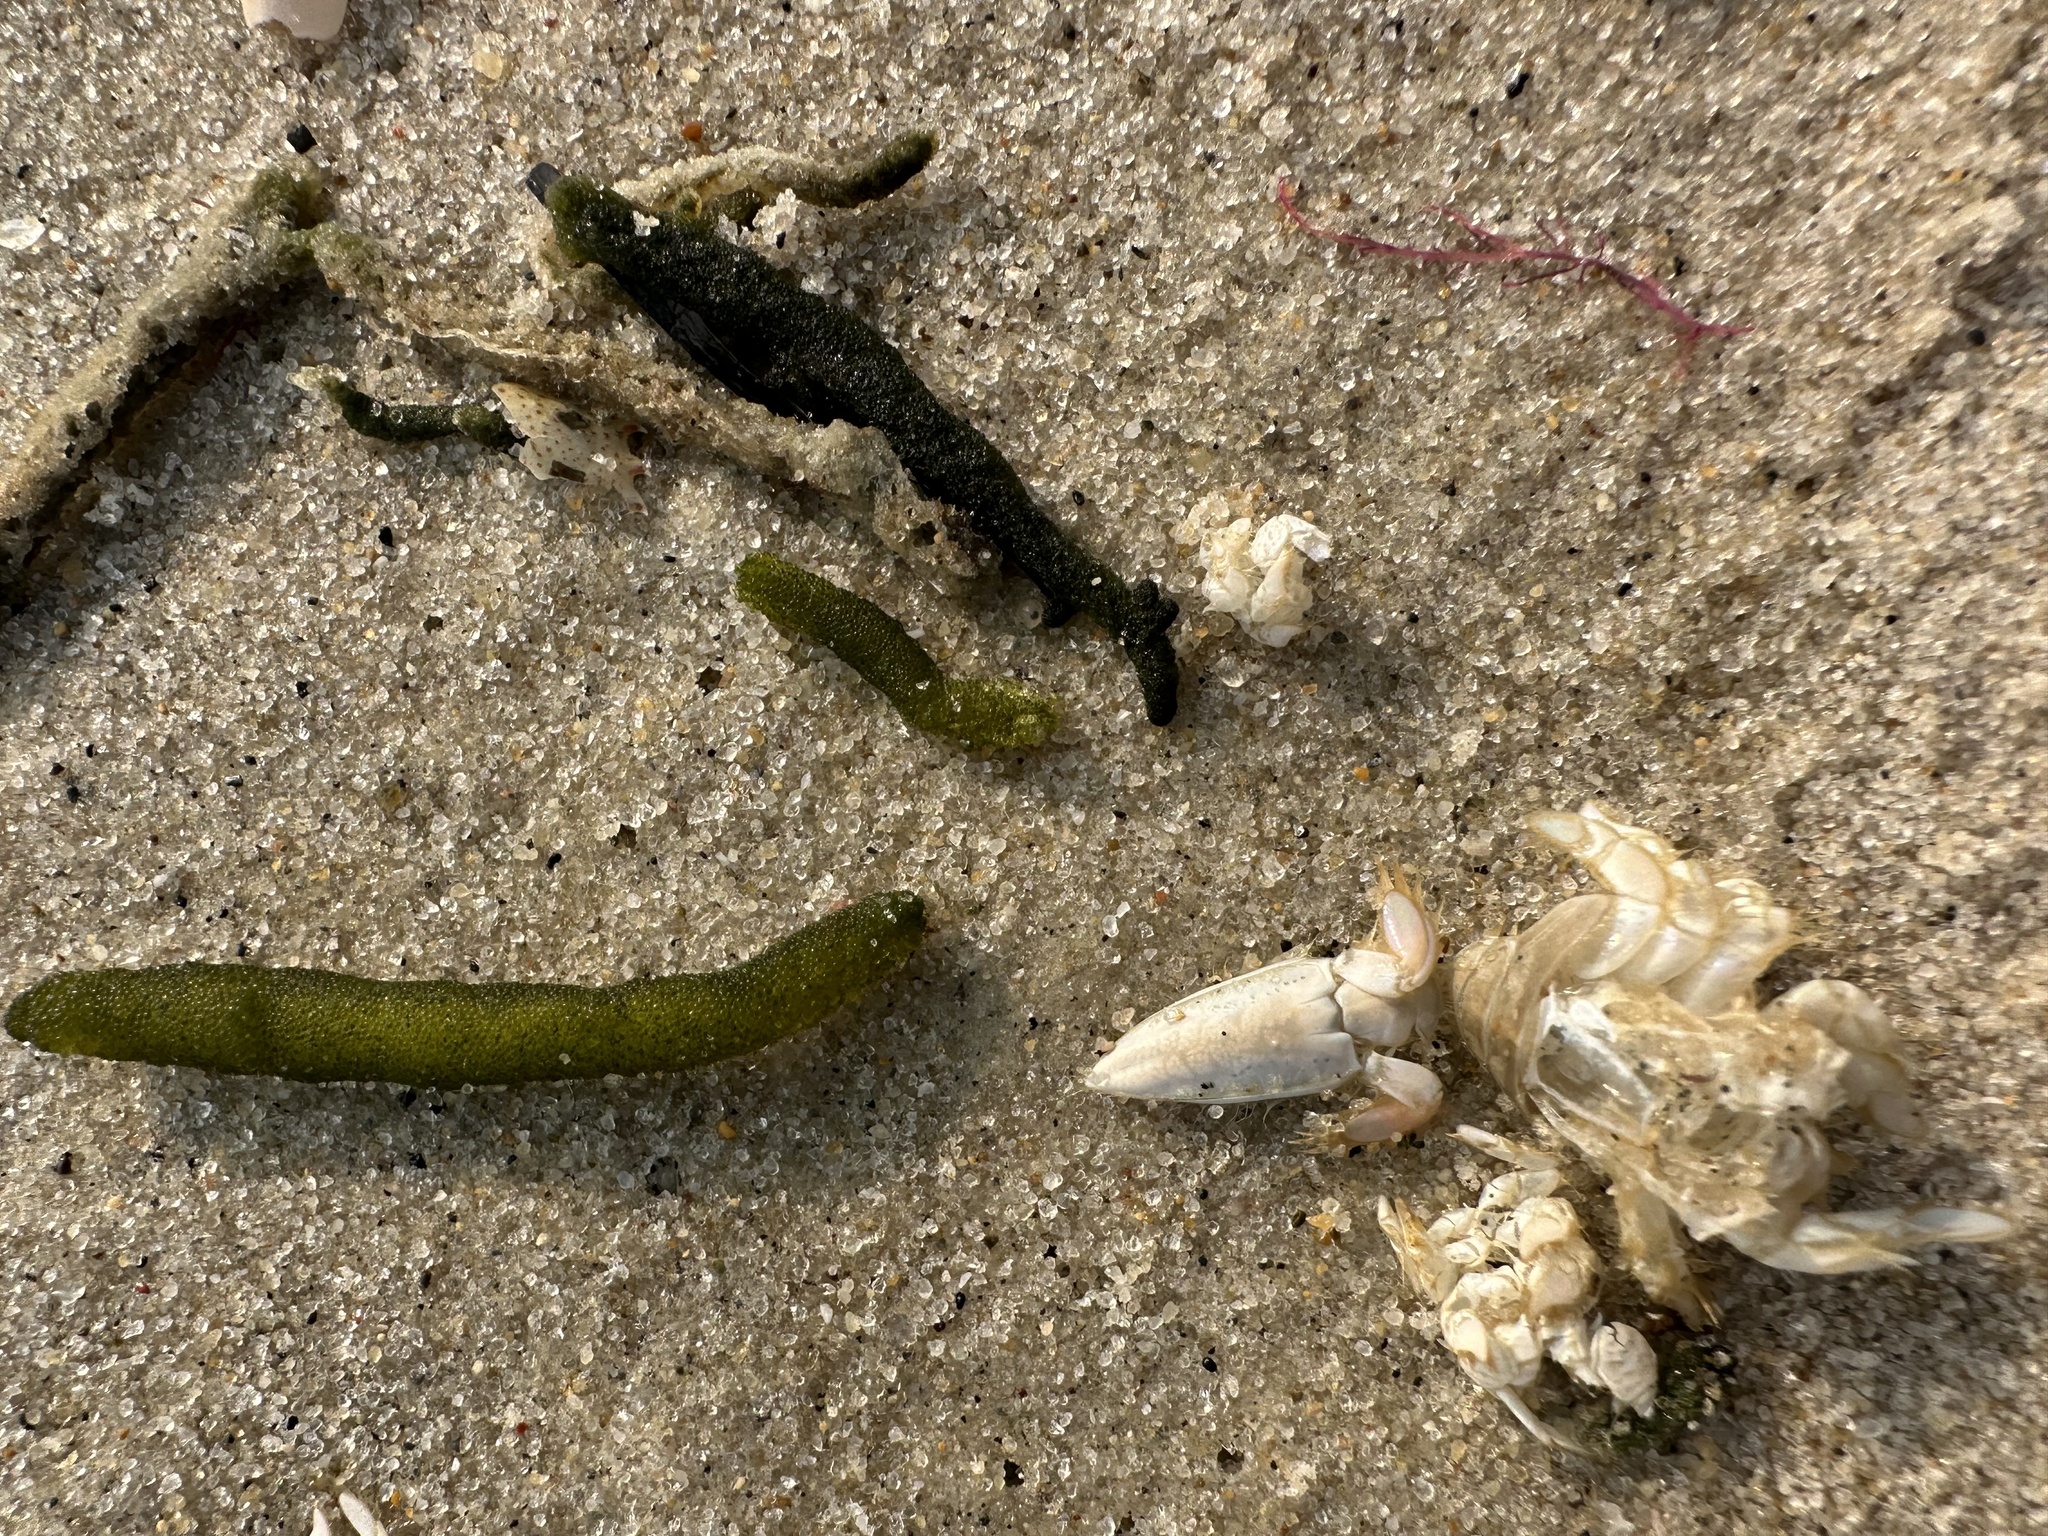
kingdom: Animalia
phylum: Arthropoda
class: Malacostraca
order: Decapoda
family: Hippidae
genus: Emerita
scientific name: Emerita talpoida
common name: Atlantic sand crab
